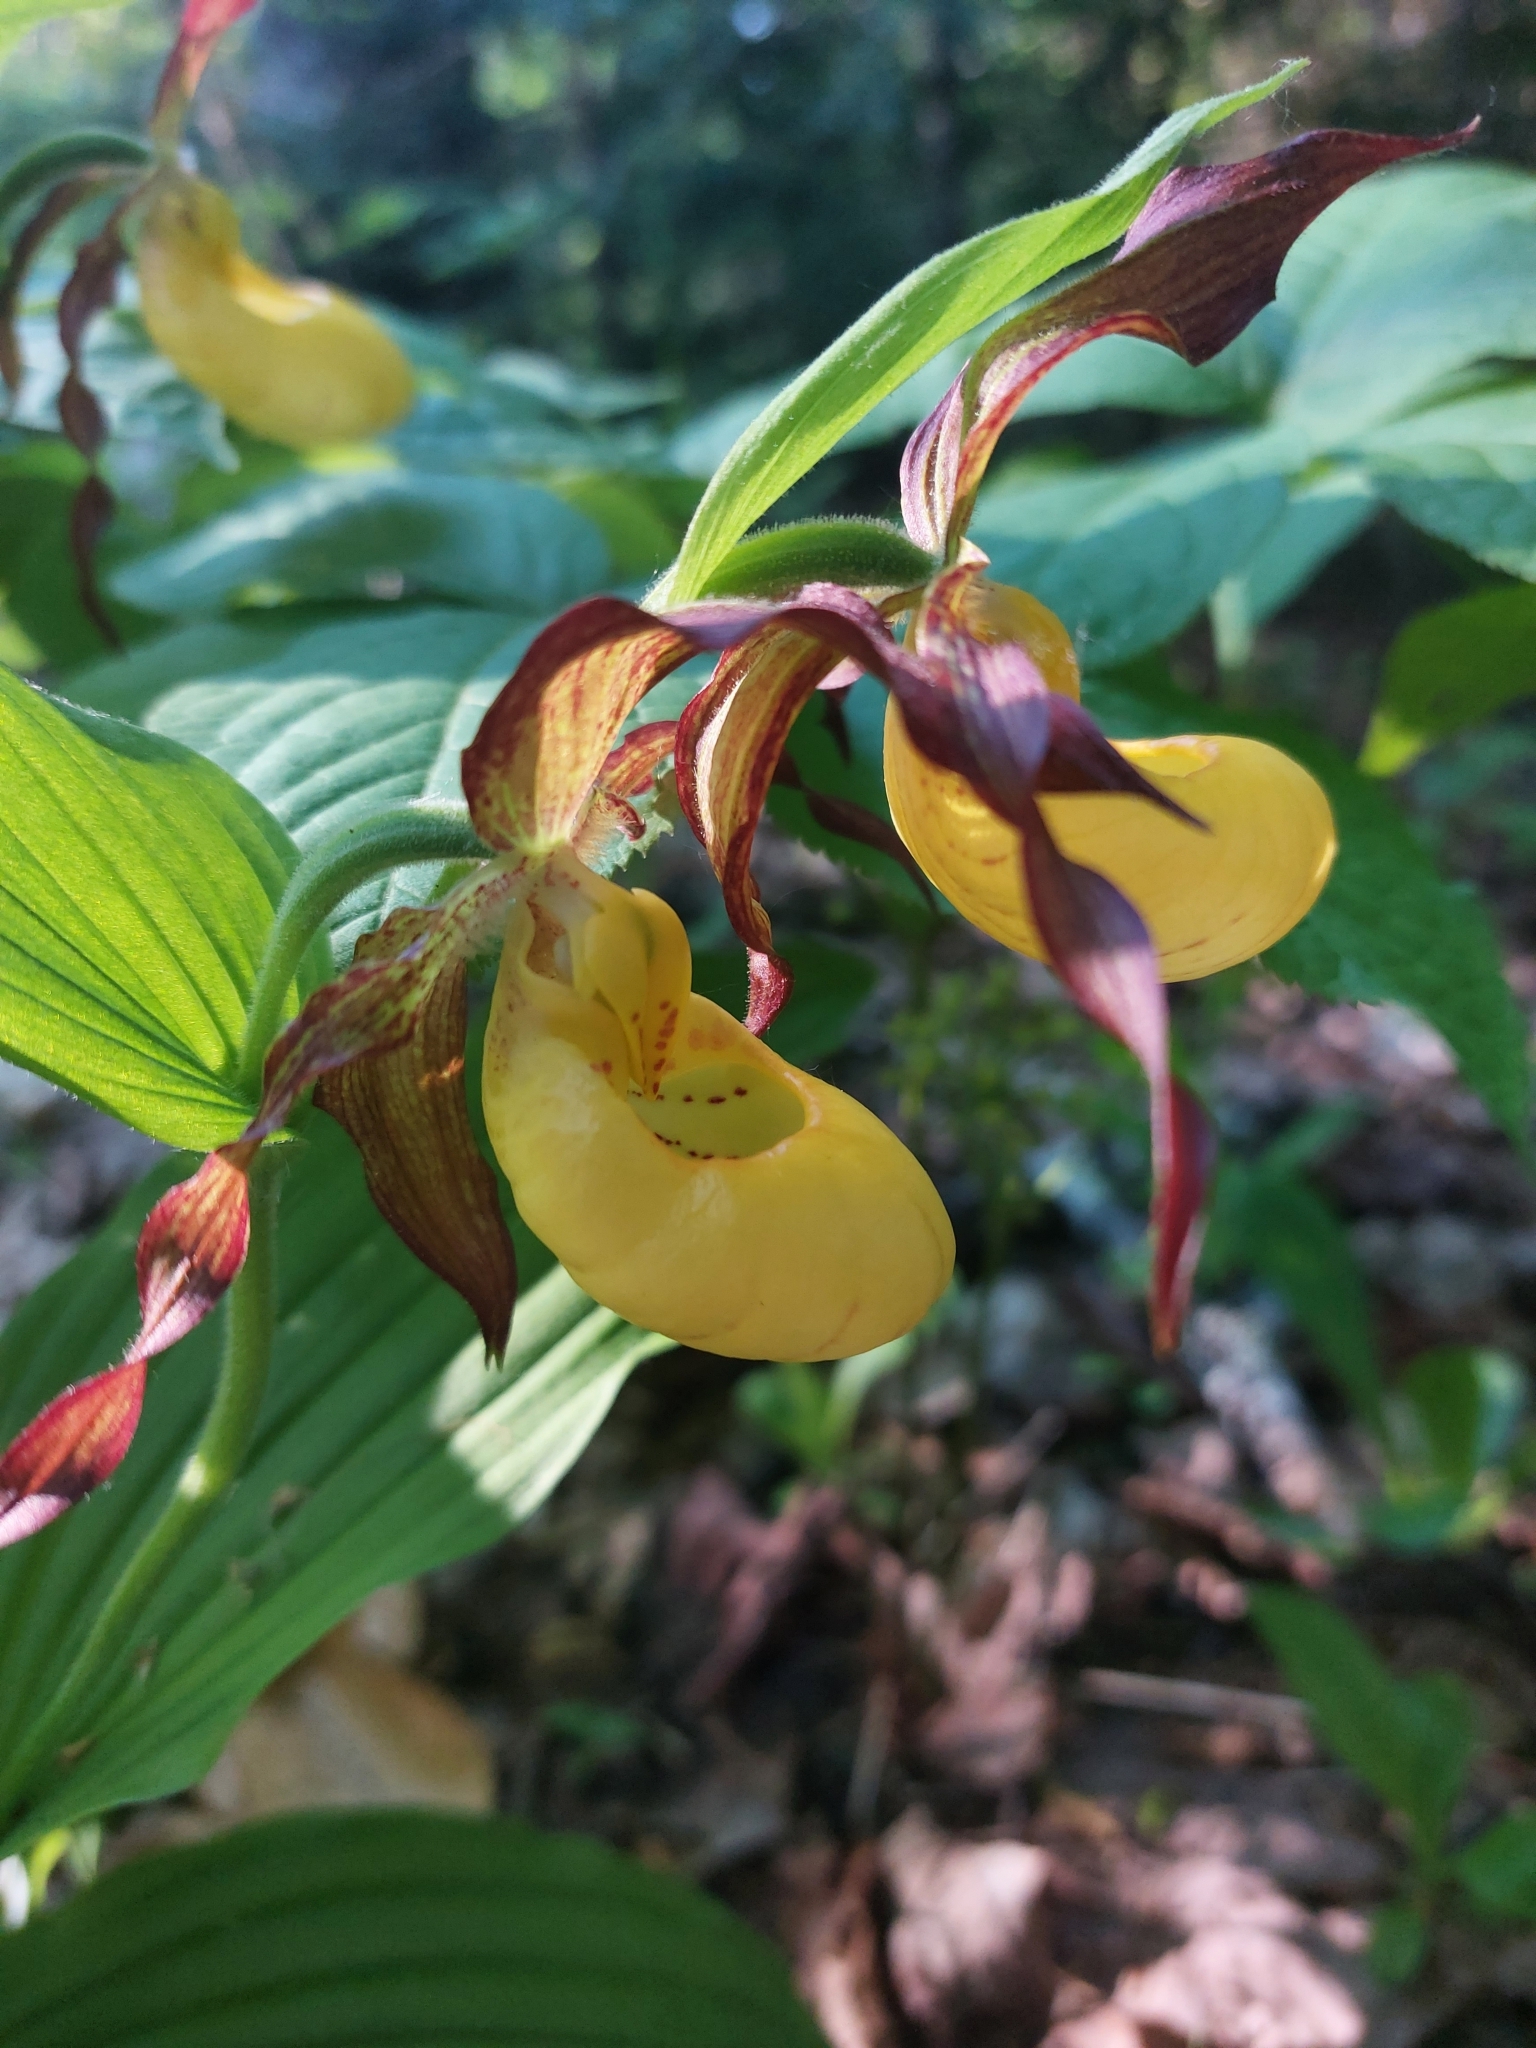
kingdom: Plantae
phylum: Tracheophyta
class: Liliopsida
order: Asparagales
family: Orchidaceae
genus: Cypripedium
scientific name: Cypripedium parviflorum
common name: American yellow lady's-slipper
